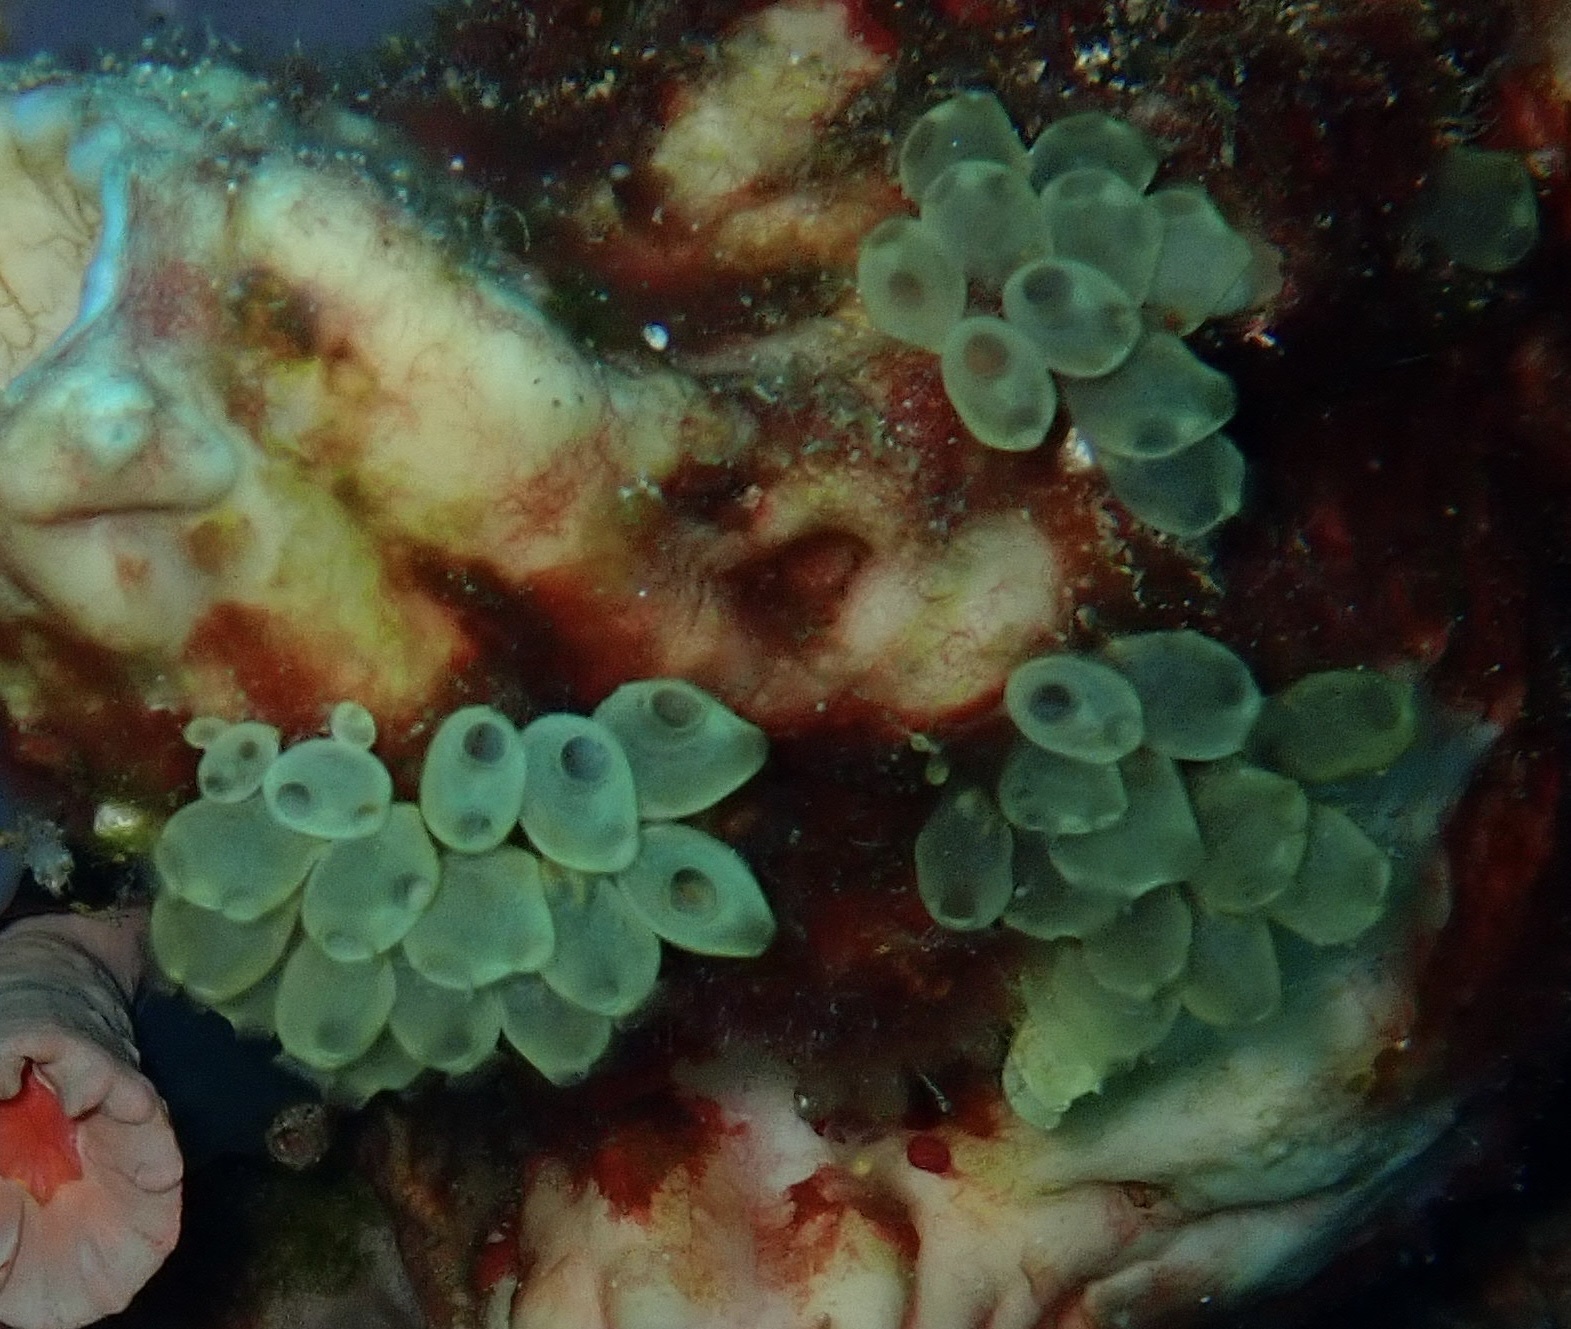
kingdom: Animalia
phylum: Chordata
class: Ascidiacea
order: Phlebobranchia
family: Perophoridae
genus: Perophora
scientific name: Perophora modificata
